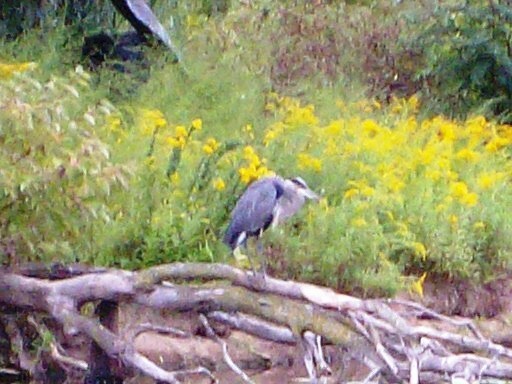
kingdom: Animalia
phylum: Chordata
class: Aves
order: Pelecaniformes
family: Ardeidae
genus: Ardea
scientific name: Ardea herodias
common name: Great blue heron
